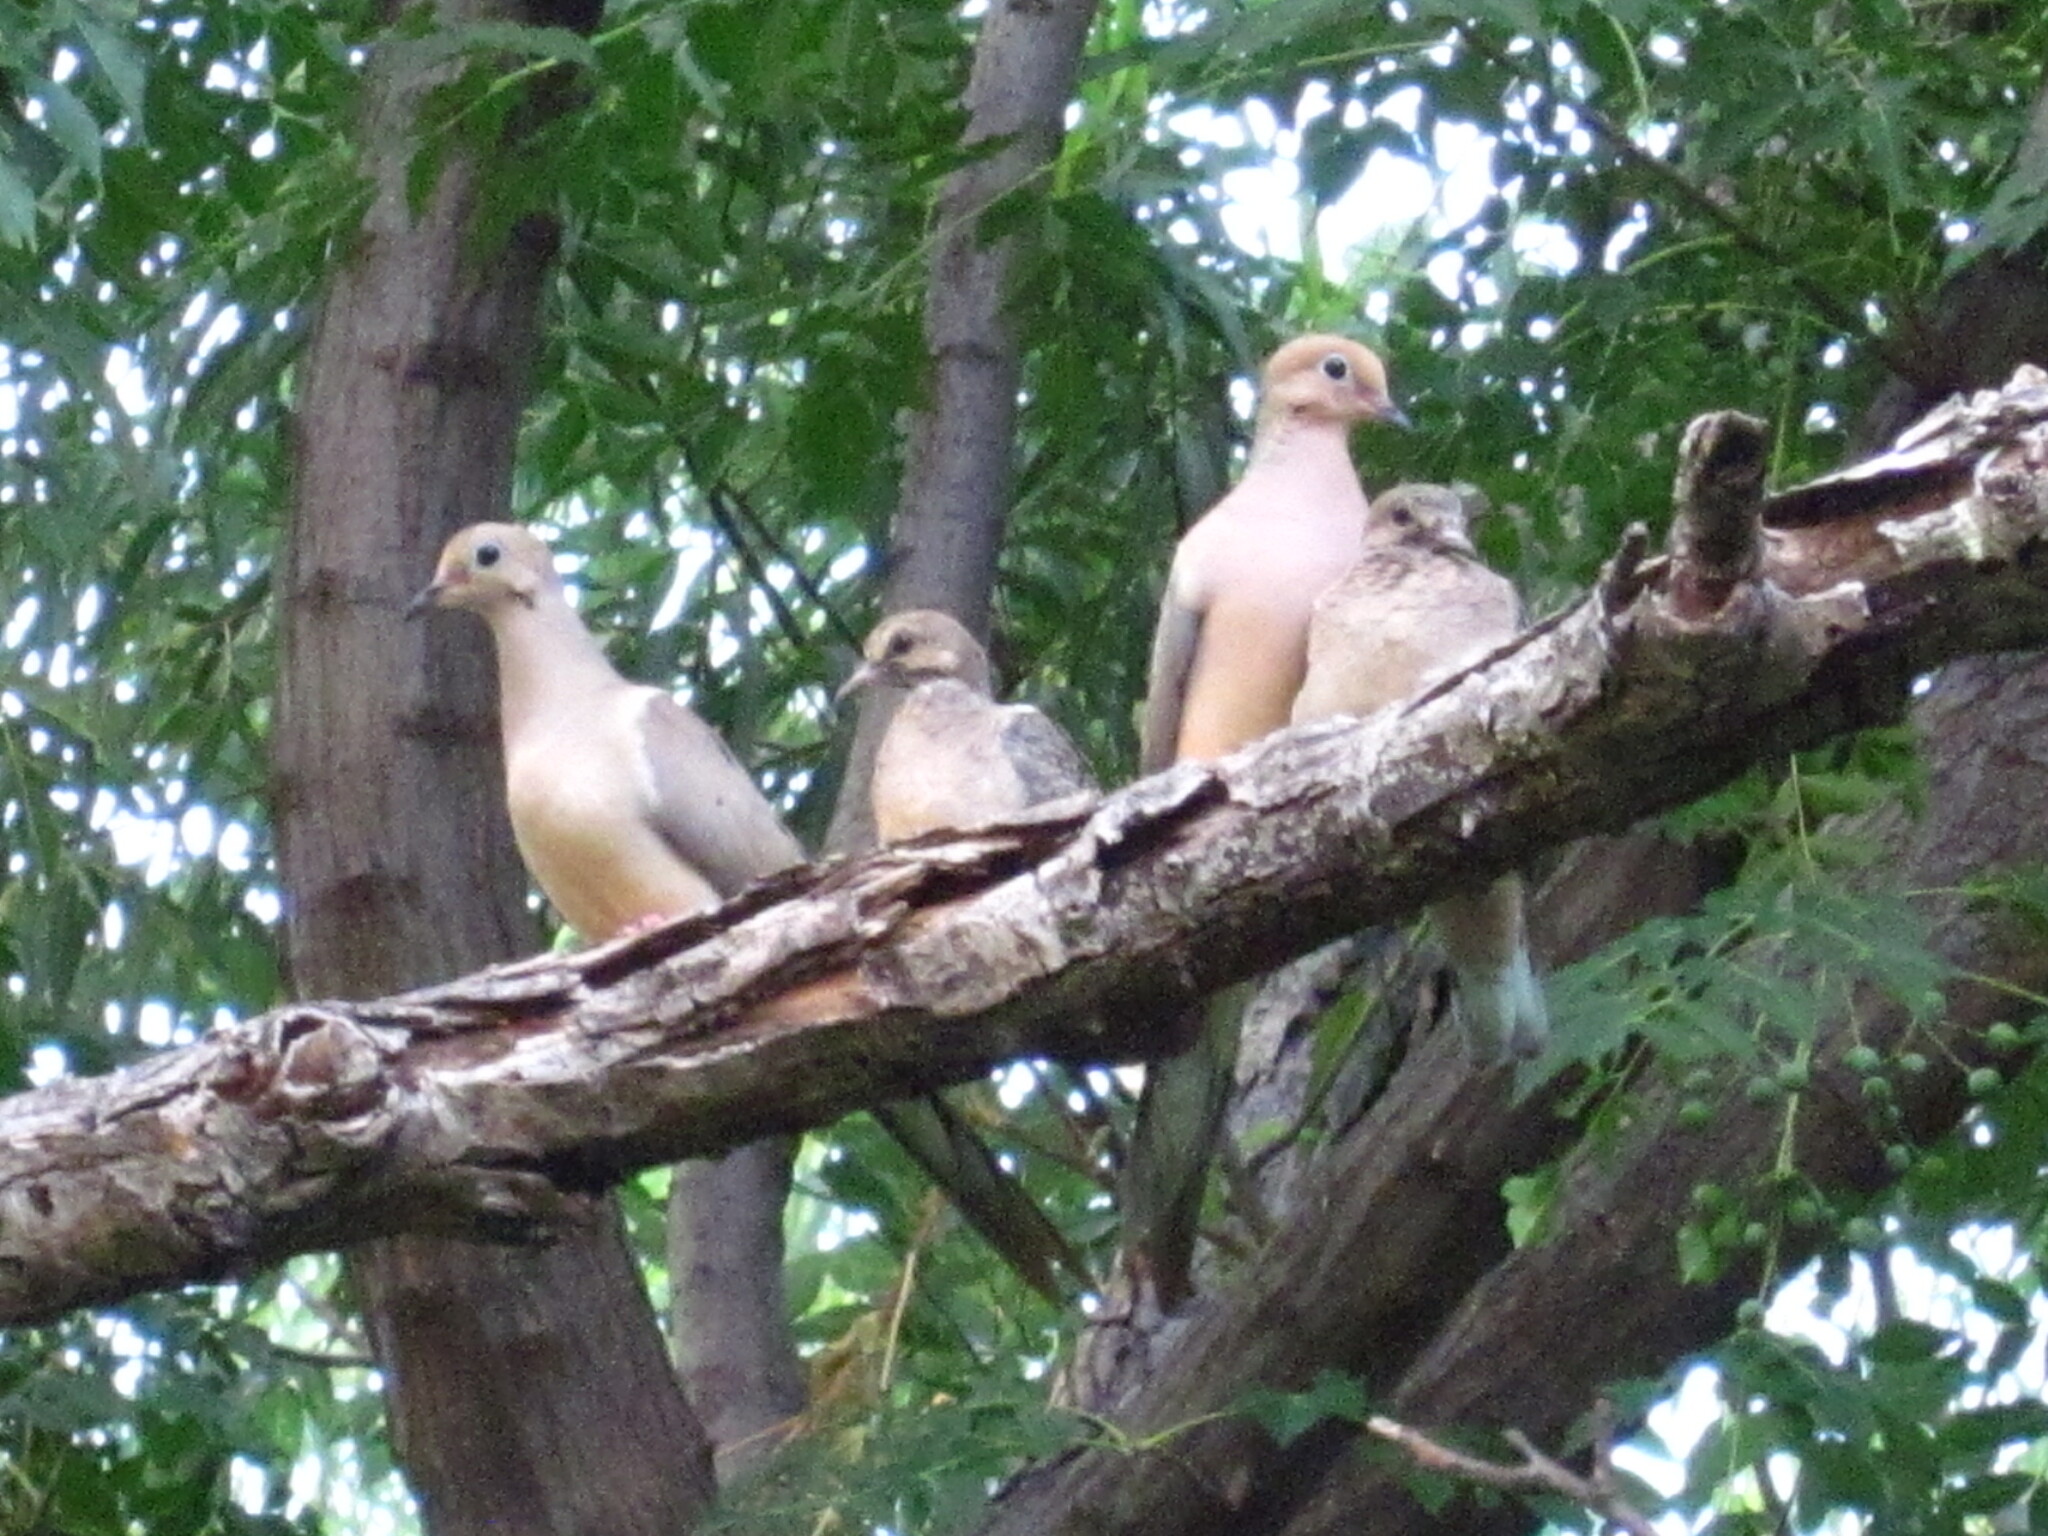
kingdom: Animalia
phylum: Chordata
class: Aves
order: Columbiformes
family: Columbidae
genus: Zenaida
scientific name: Zenaida macroura
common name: Mourning dove
